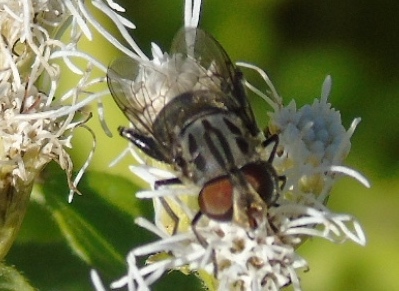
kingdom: Animalia
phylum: Arthropoda
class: Insecta
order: Diptera
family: Syrphidae
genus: Palpada
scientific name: Palpada
